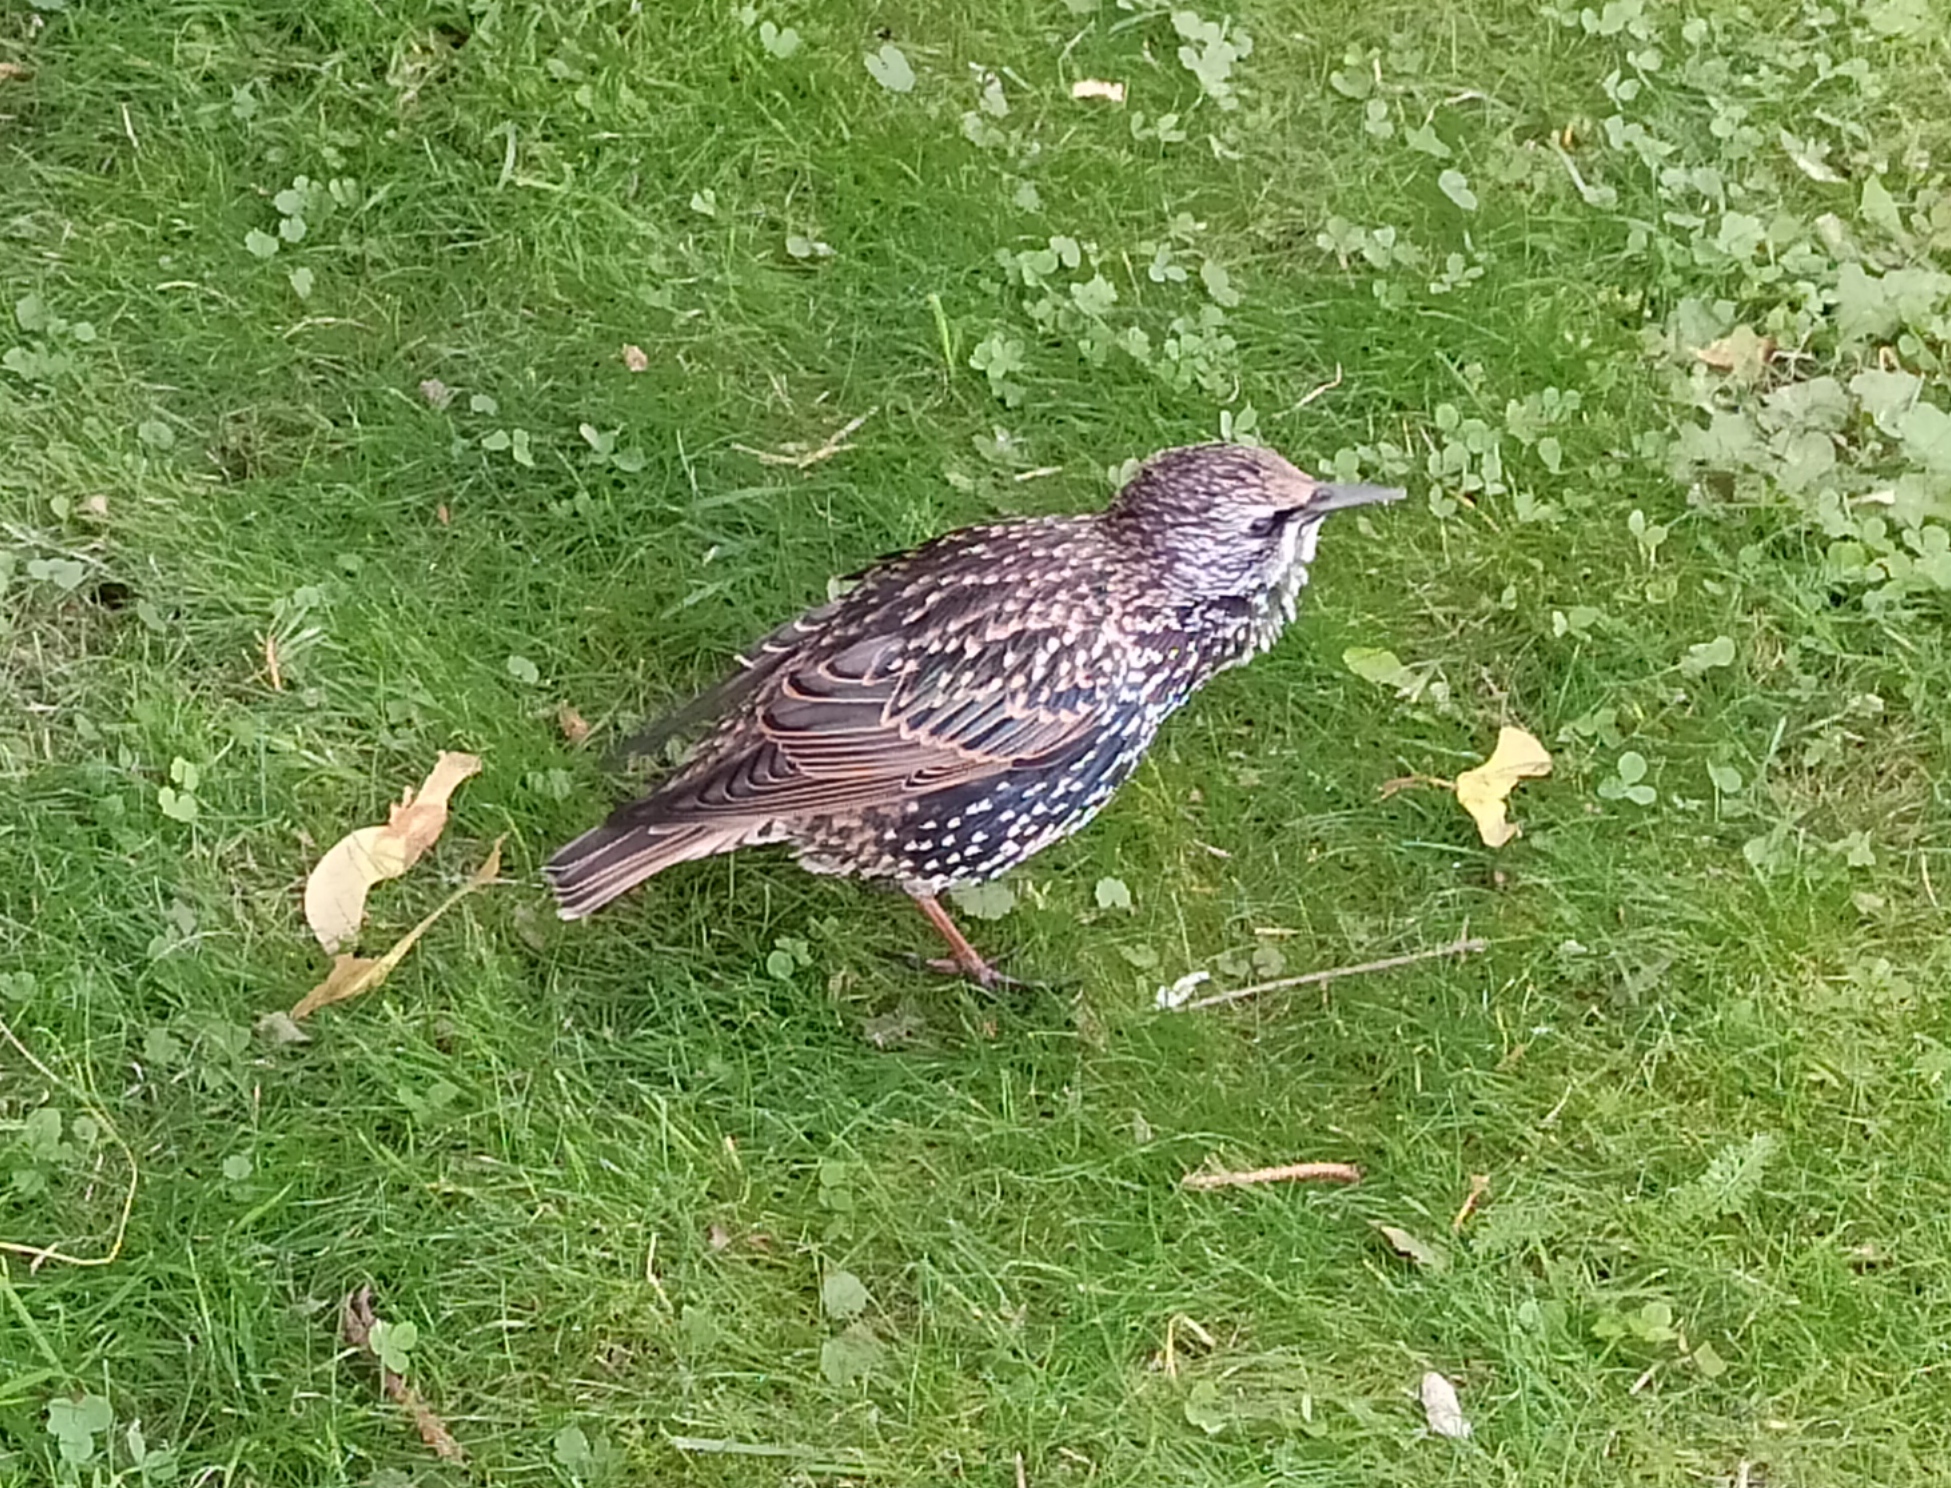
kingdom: Animalia
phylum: Chordata
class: Aves
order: Passeriformes
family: Sturnidae
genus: Sturnus
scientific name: Sturnus vulgaris
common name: Common starling
